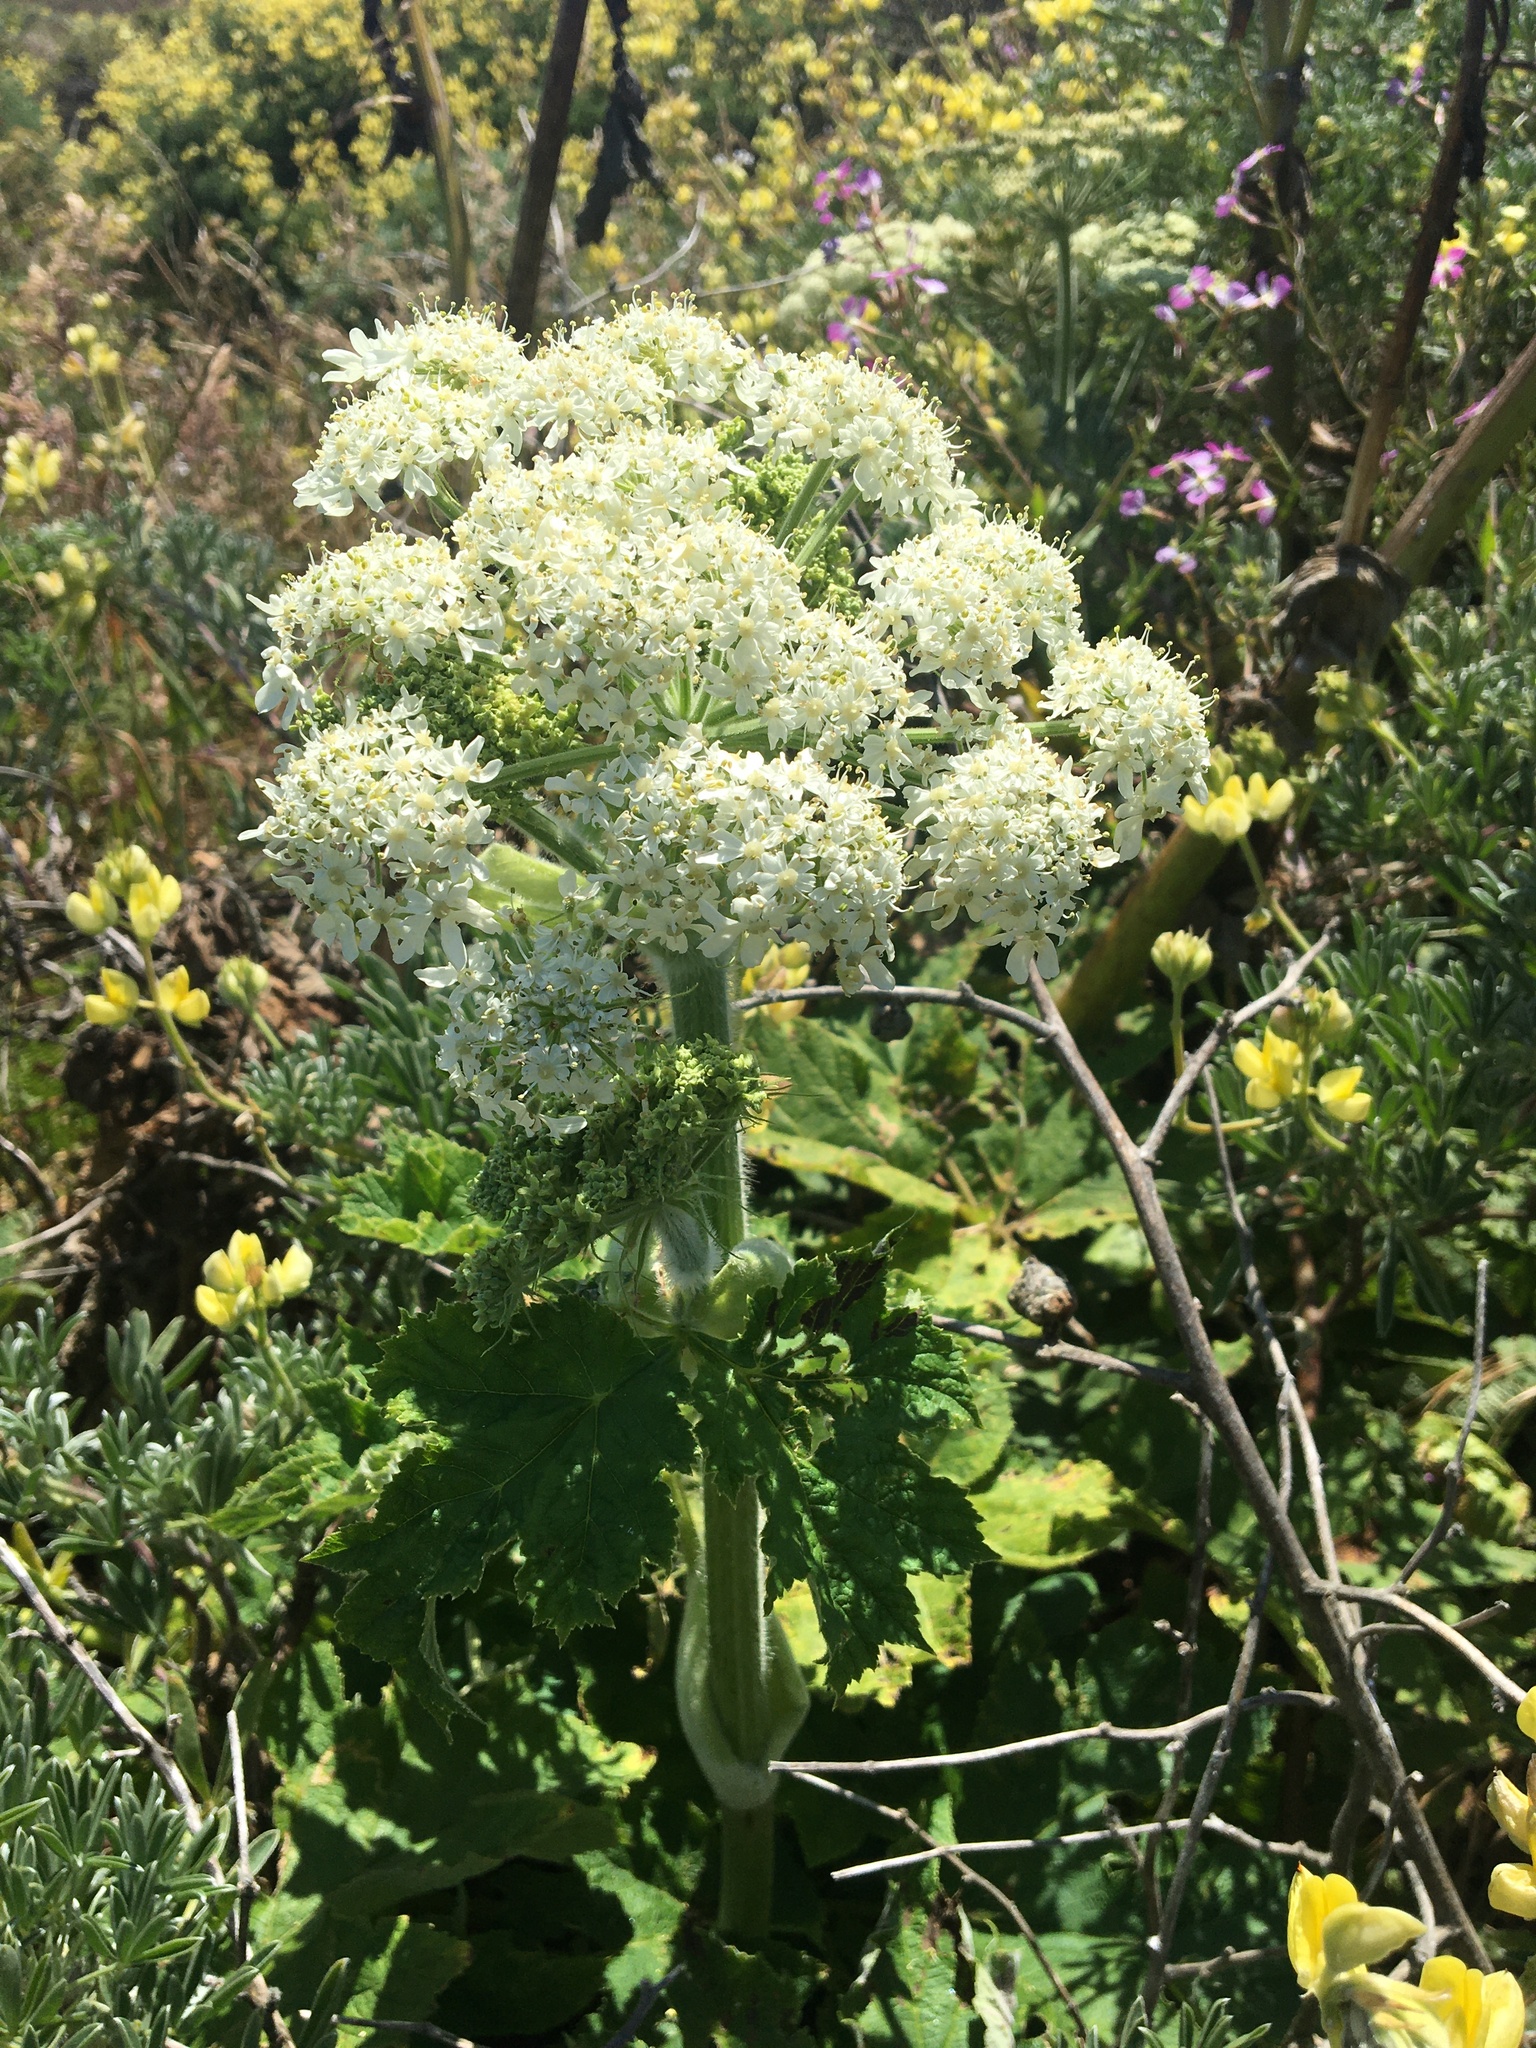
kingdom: Plantae
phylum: Tracheophyta
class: Magnoliopsida
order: Apiales
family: Apiaceae
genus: Heracleum
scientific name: Heracleum maximum
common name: American cow parsnip
